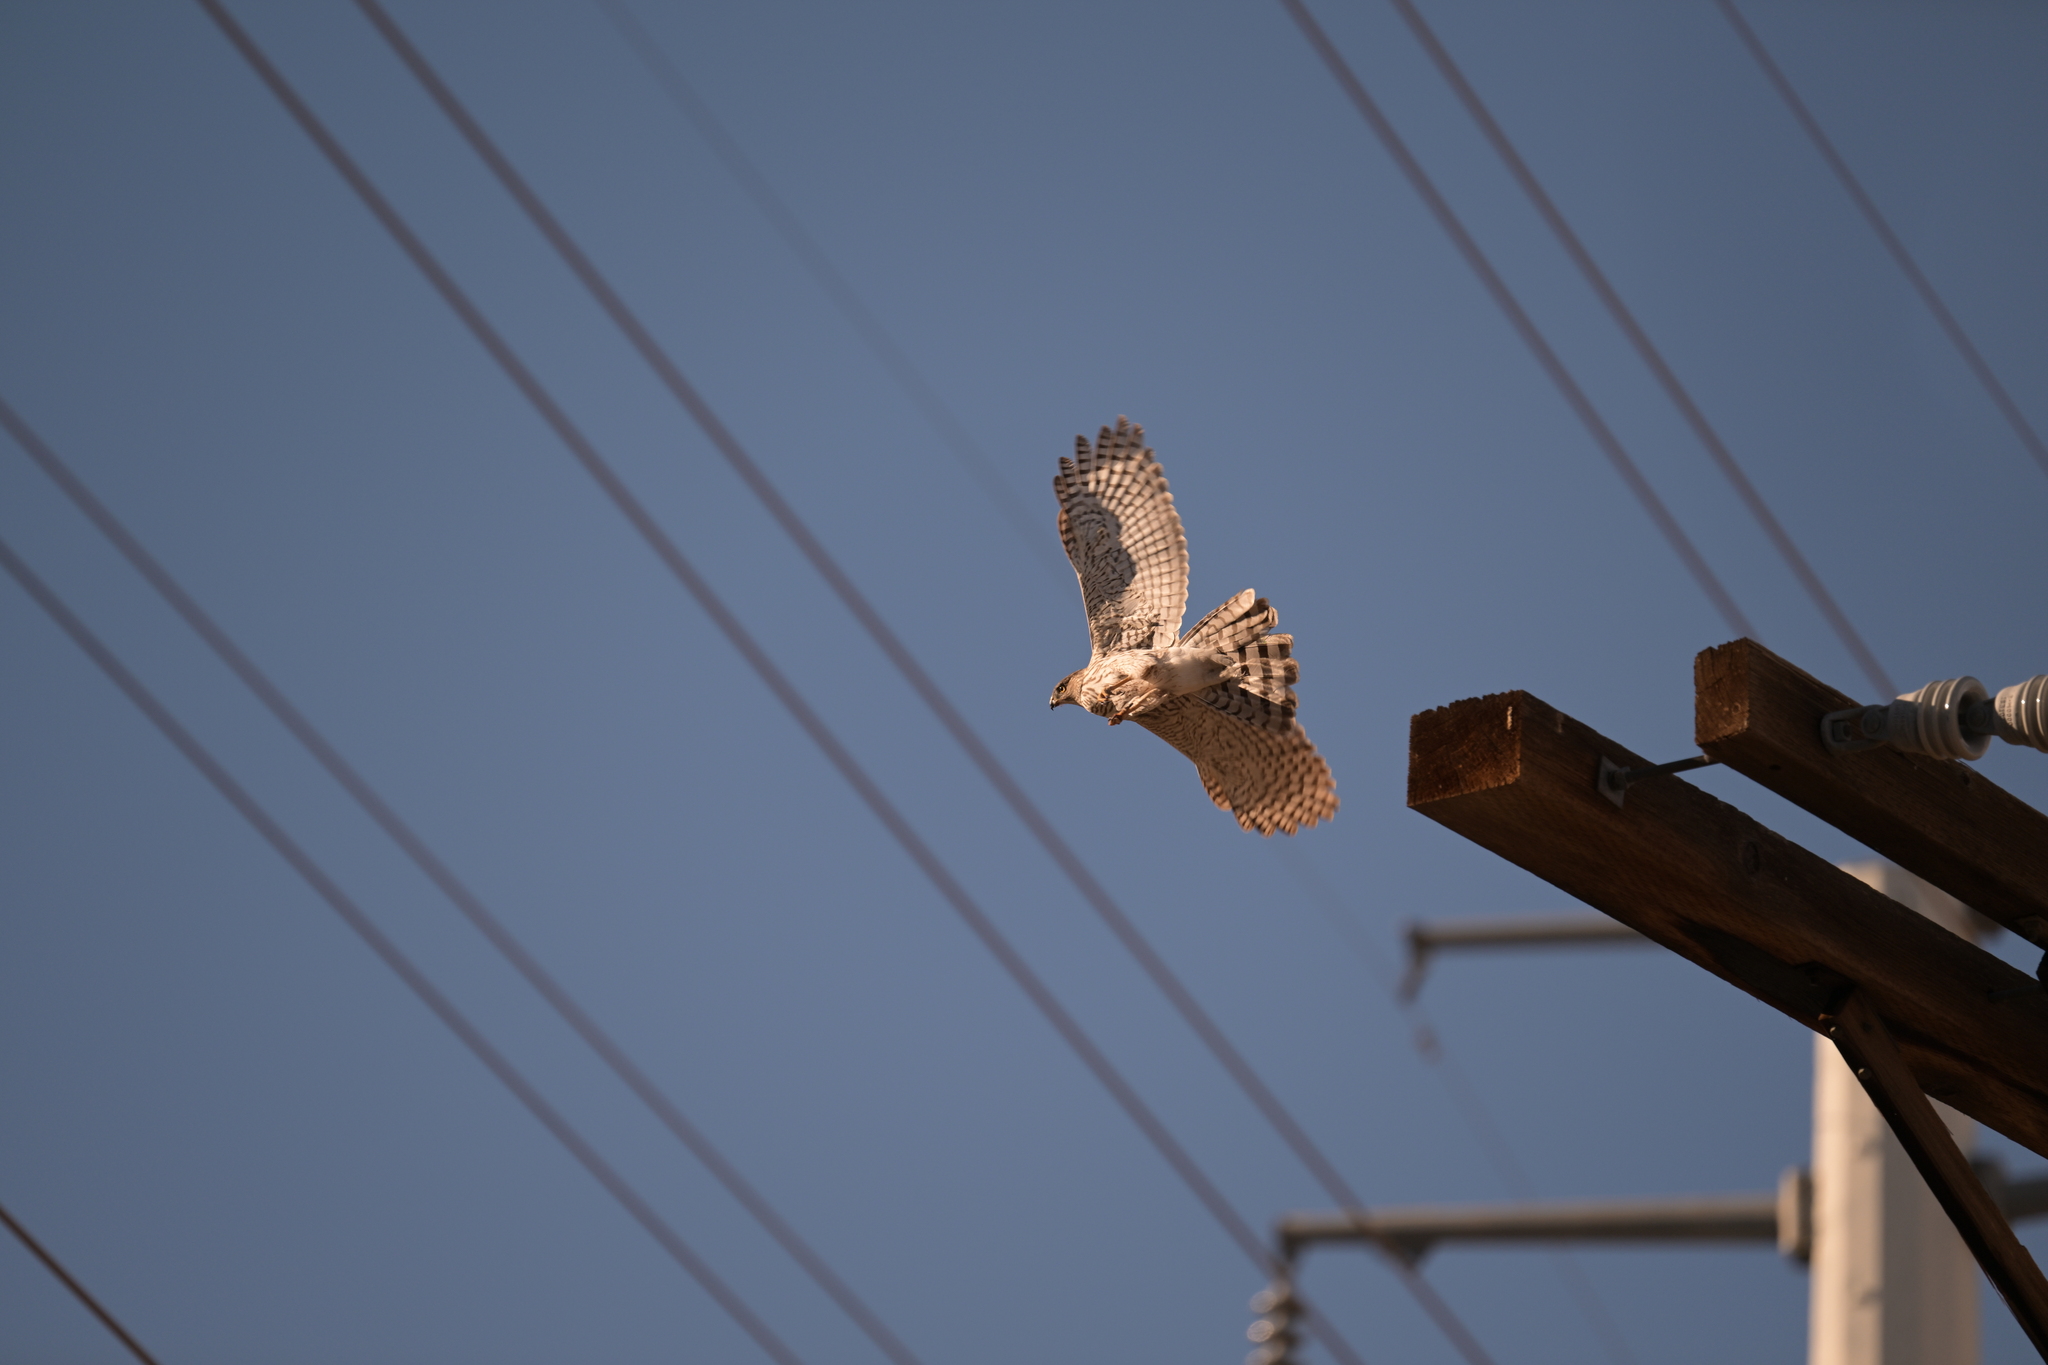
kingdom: Animalia
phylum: Chordata
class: Aves
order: Accipitriformes
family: Accipitridae
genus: Accipiter
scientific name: Accipiter cooperii
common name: Cooper's hawk
